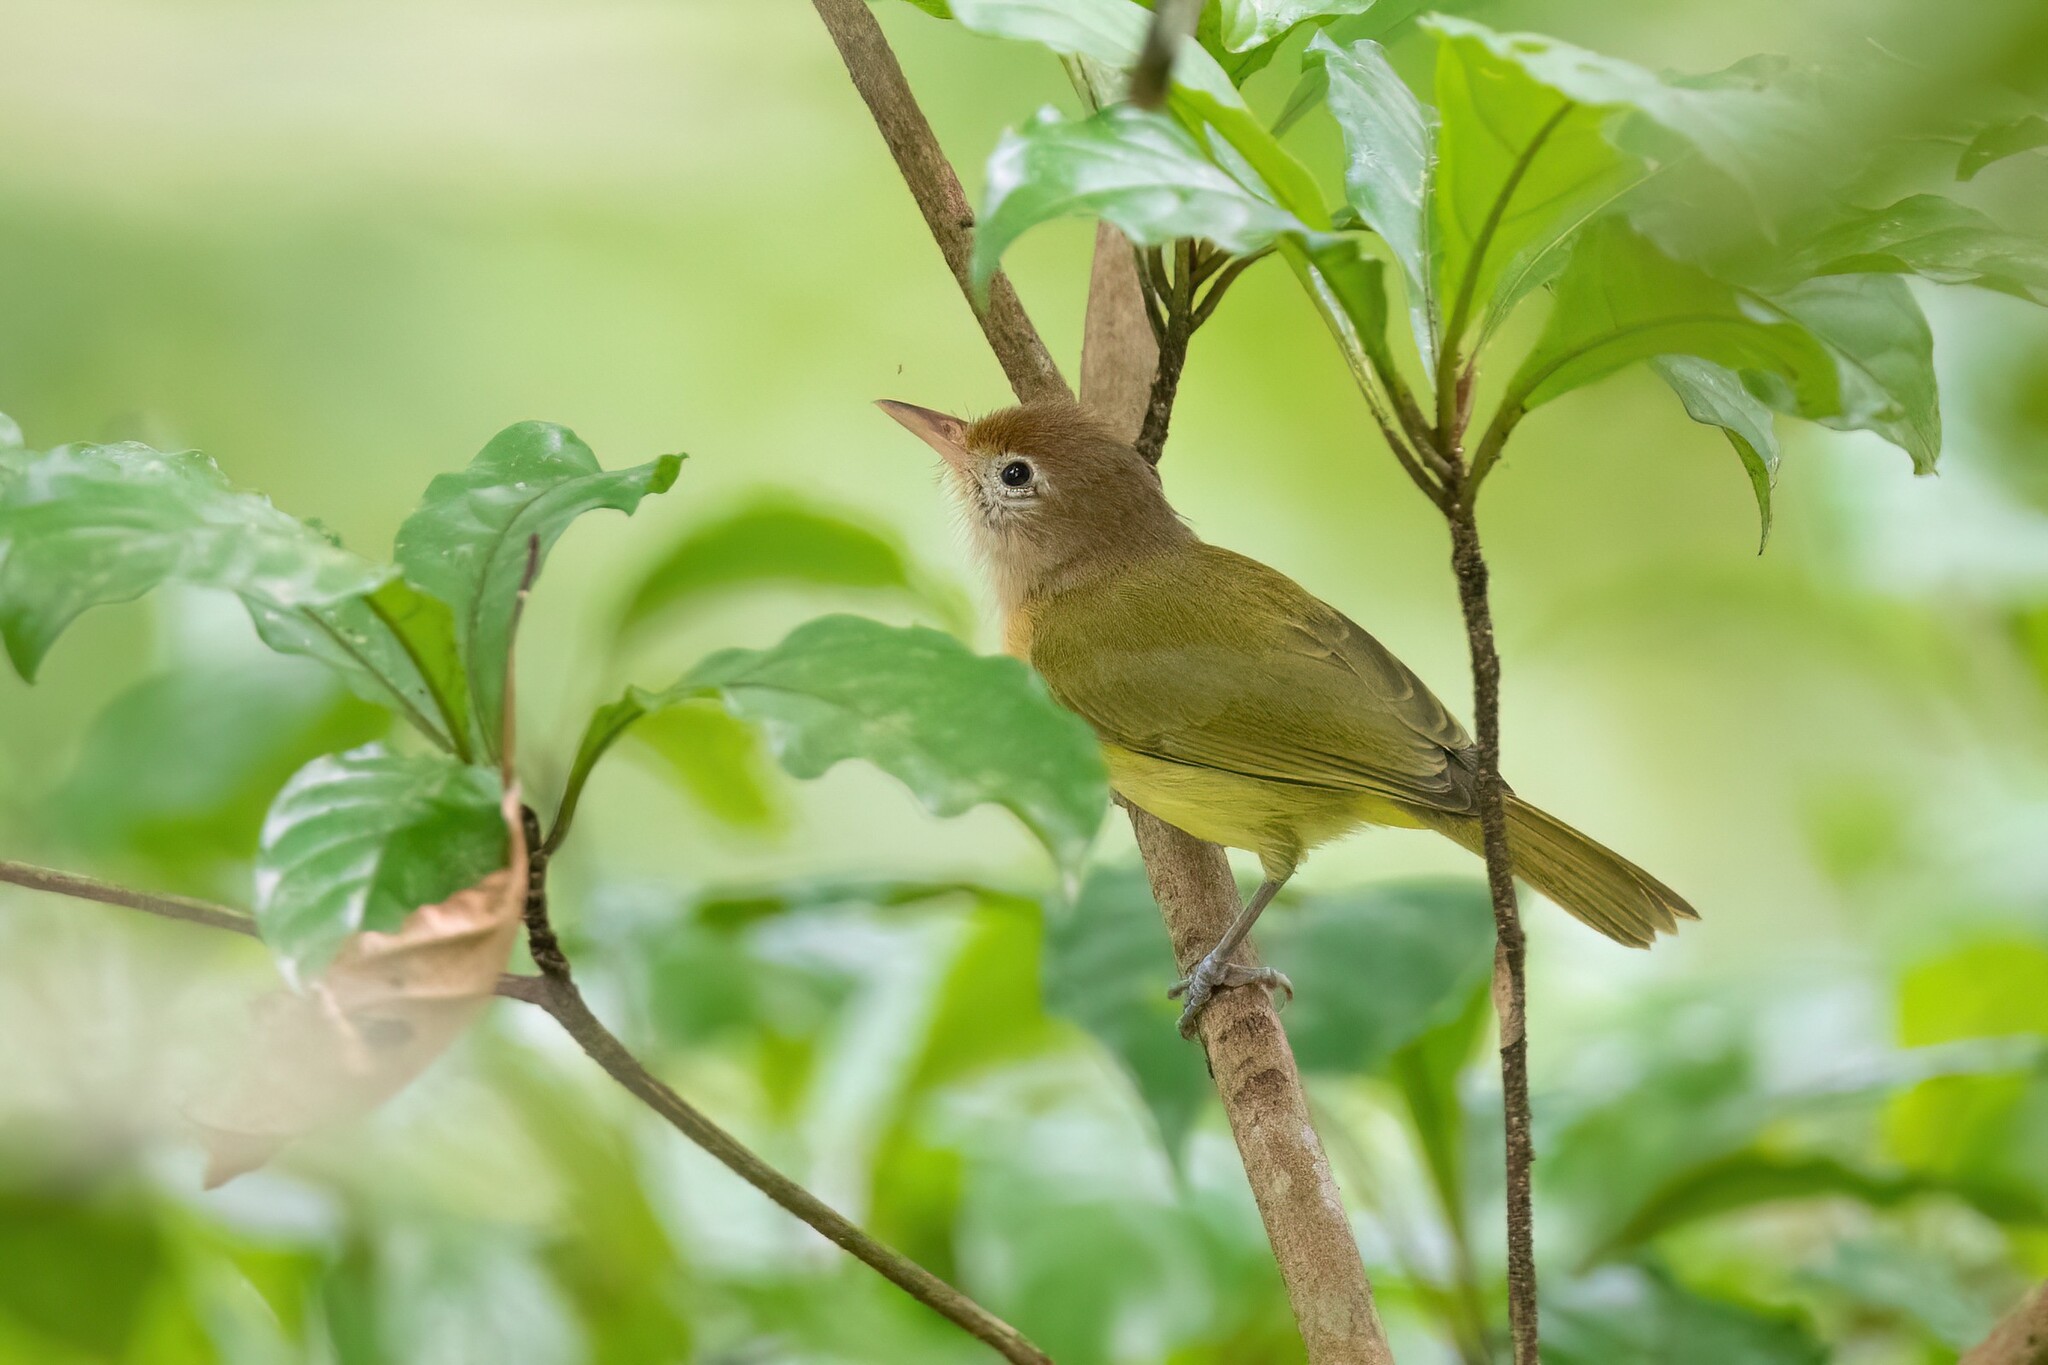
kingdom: Animalia
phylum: Chordata
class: Aves
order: Passeriformes
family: Vireonidae
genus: Hylophilus
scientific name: Hylophilus aurantiifrons
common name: Golden-fronted greenlet
